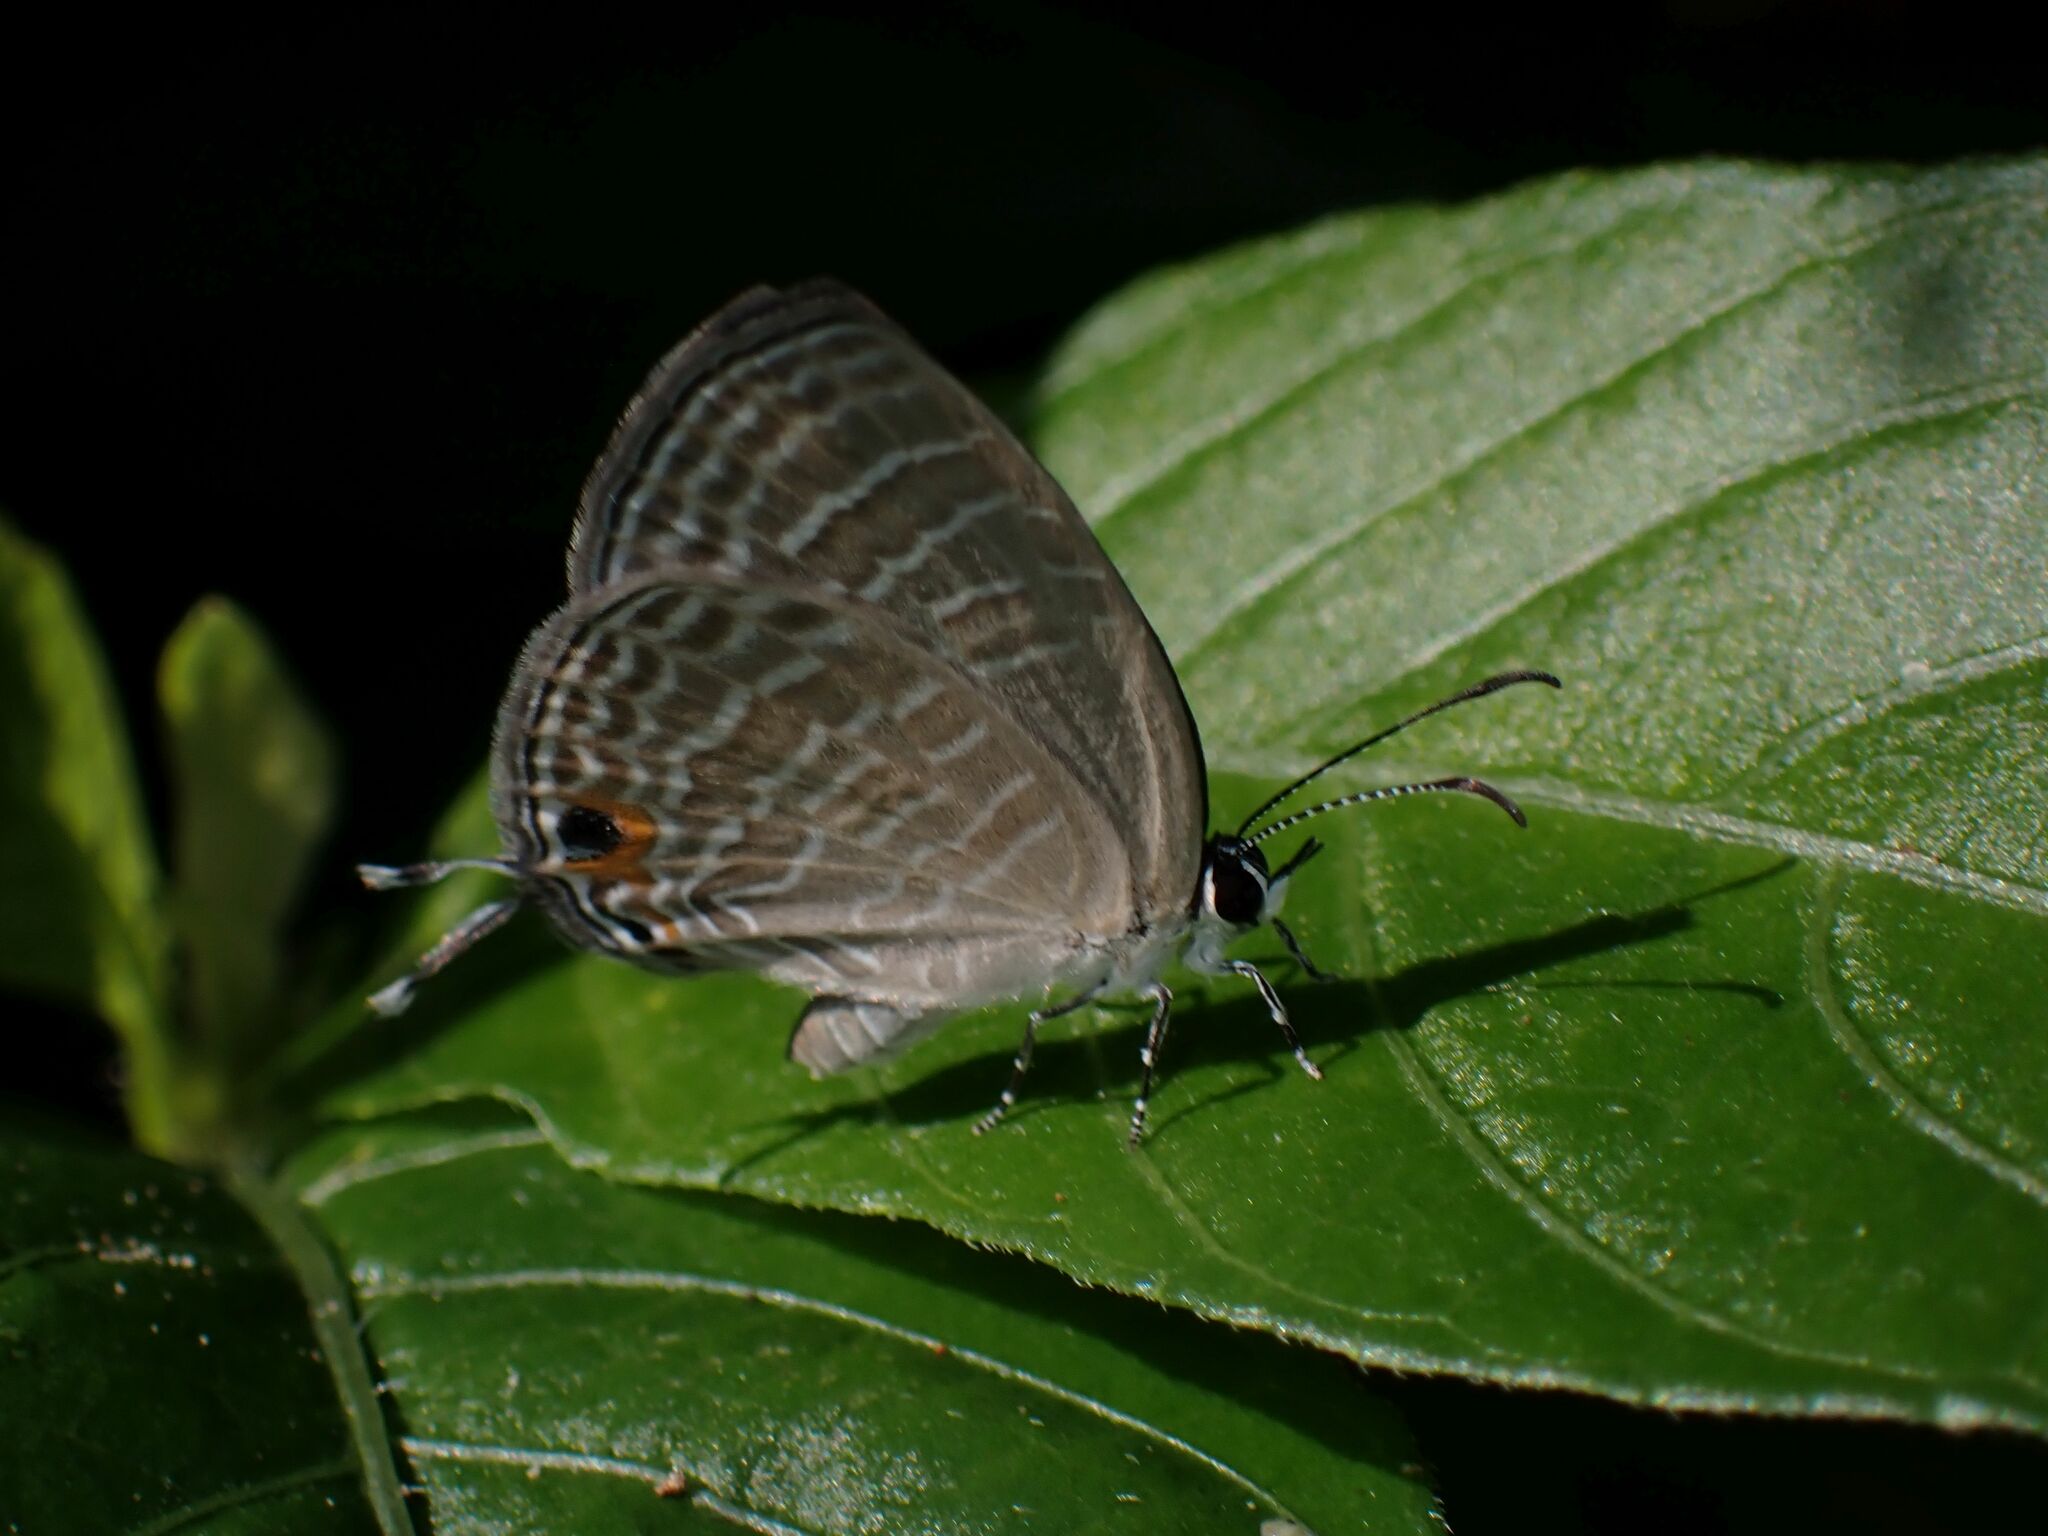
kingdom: Animalia
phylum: Arthropoda
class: Insecta
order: Lepidoptera
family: Lycaenidae
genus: Jamides
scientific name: Jamides celeno
